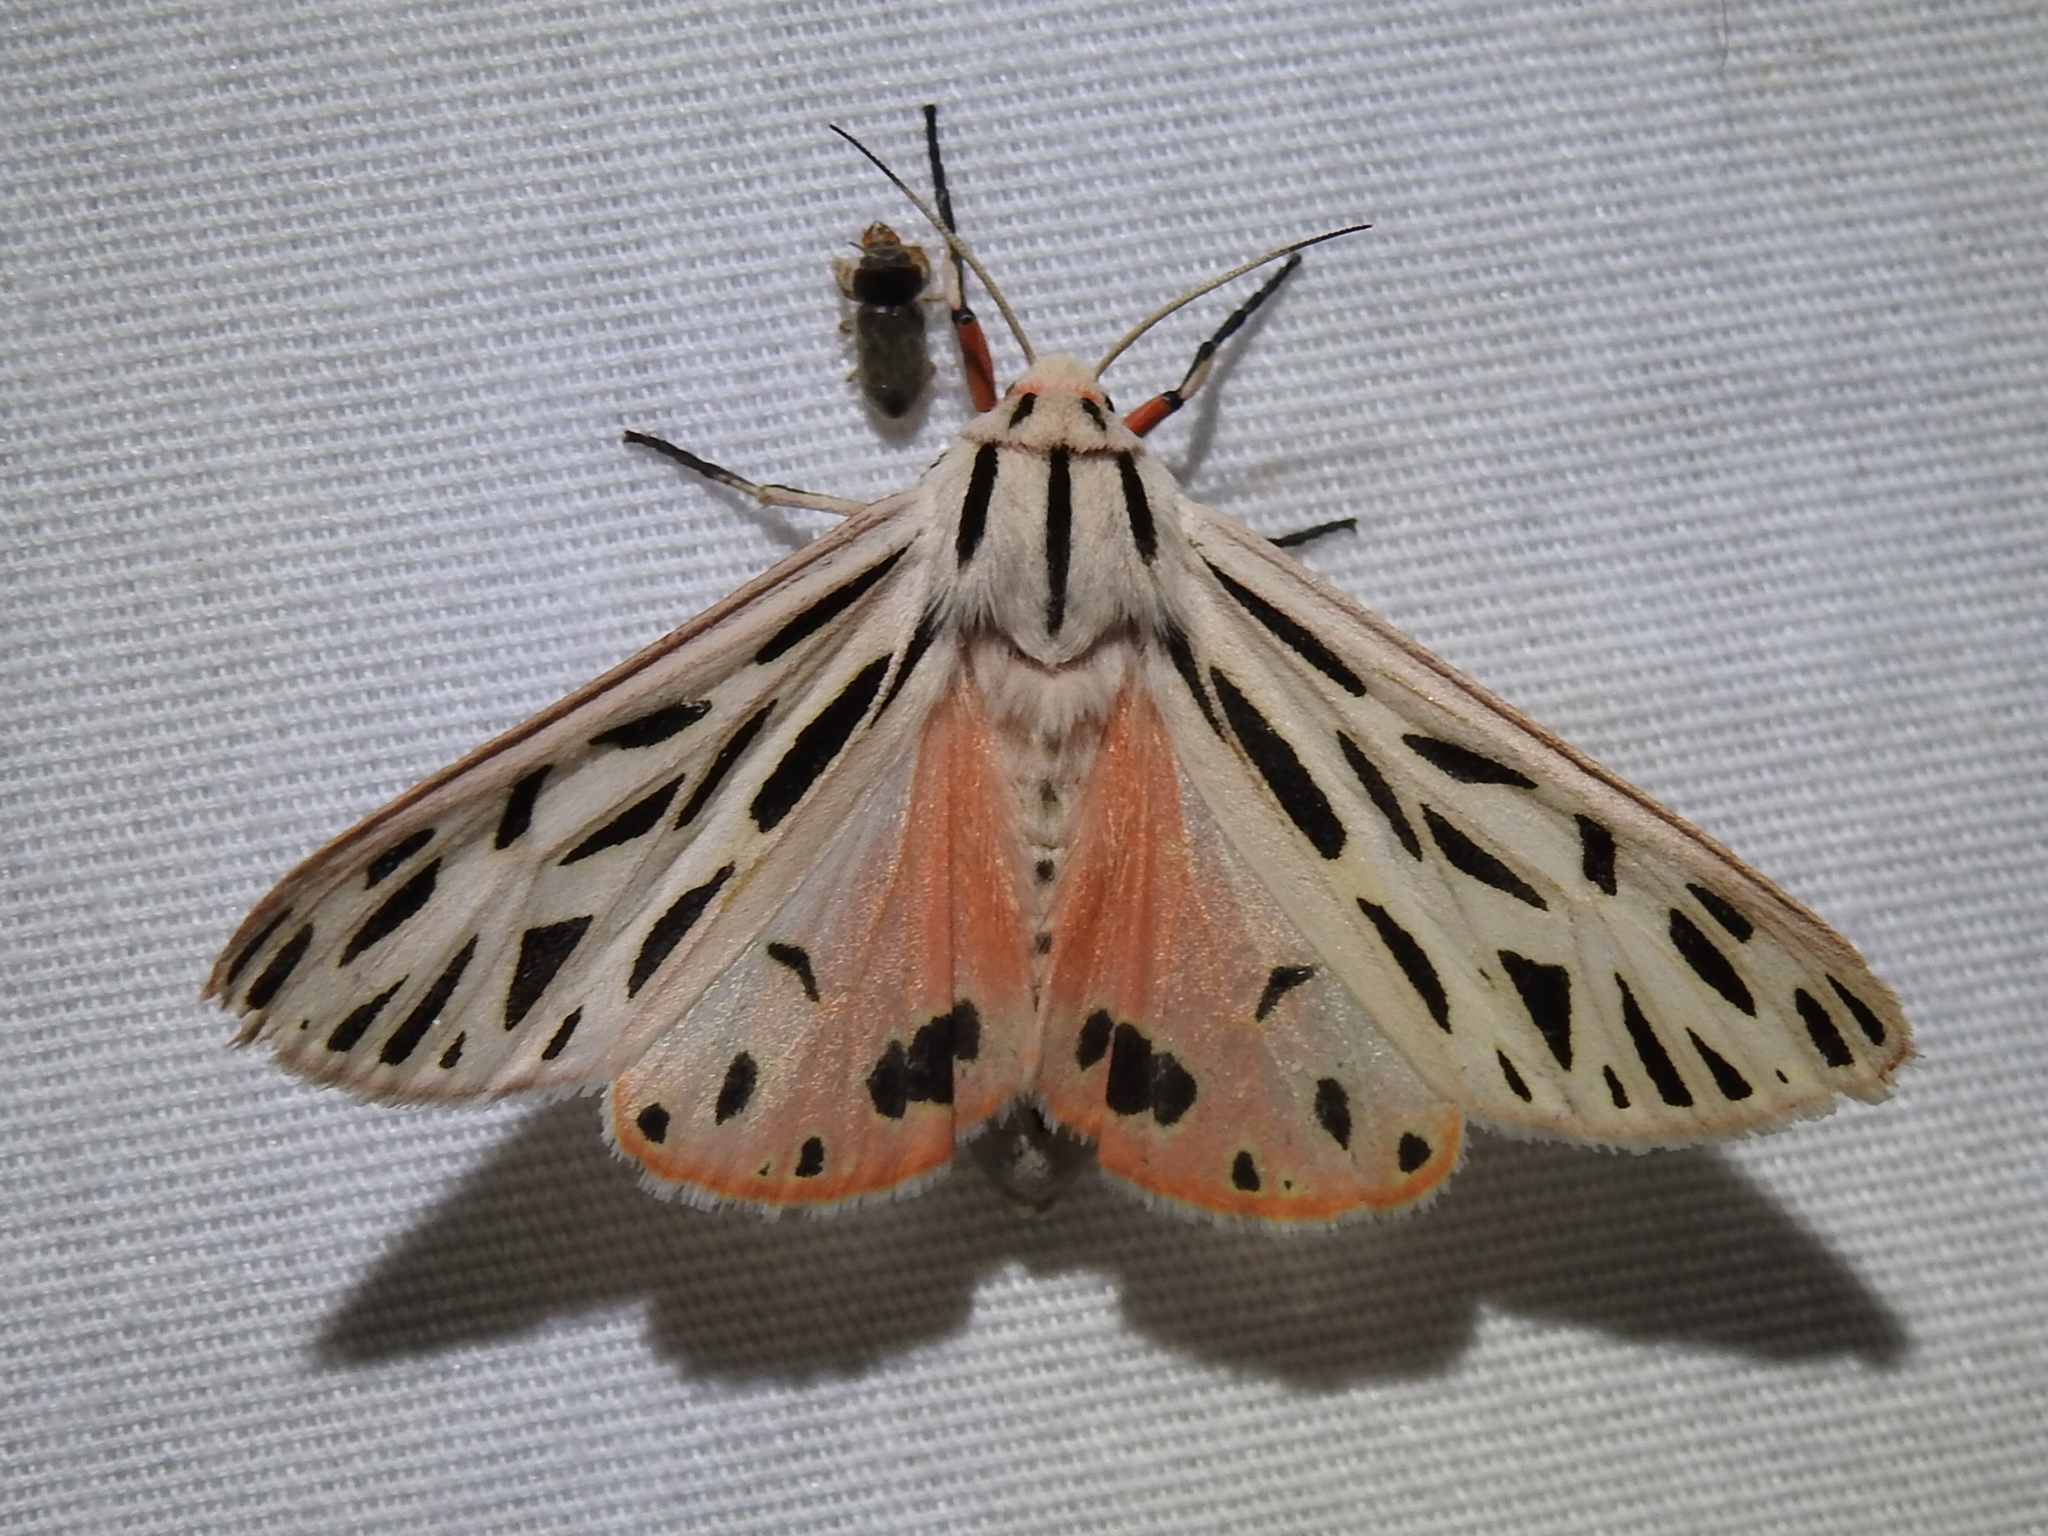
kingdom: Animalia
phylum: Arthropoda
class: Insecta
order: Lepidoptera
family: Erebidae
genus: Apantesis
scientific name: Apantesis arge
